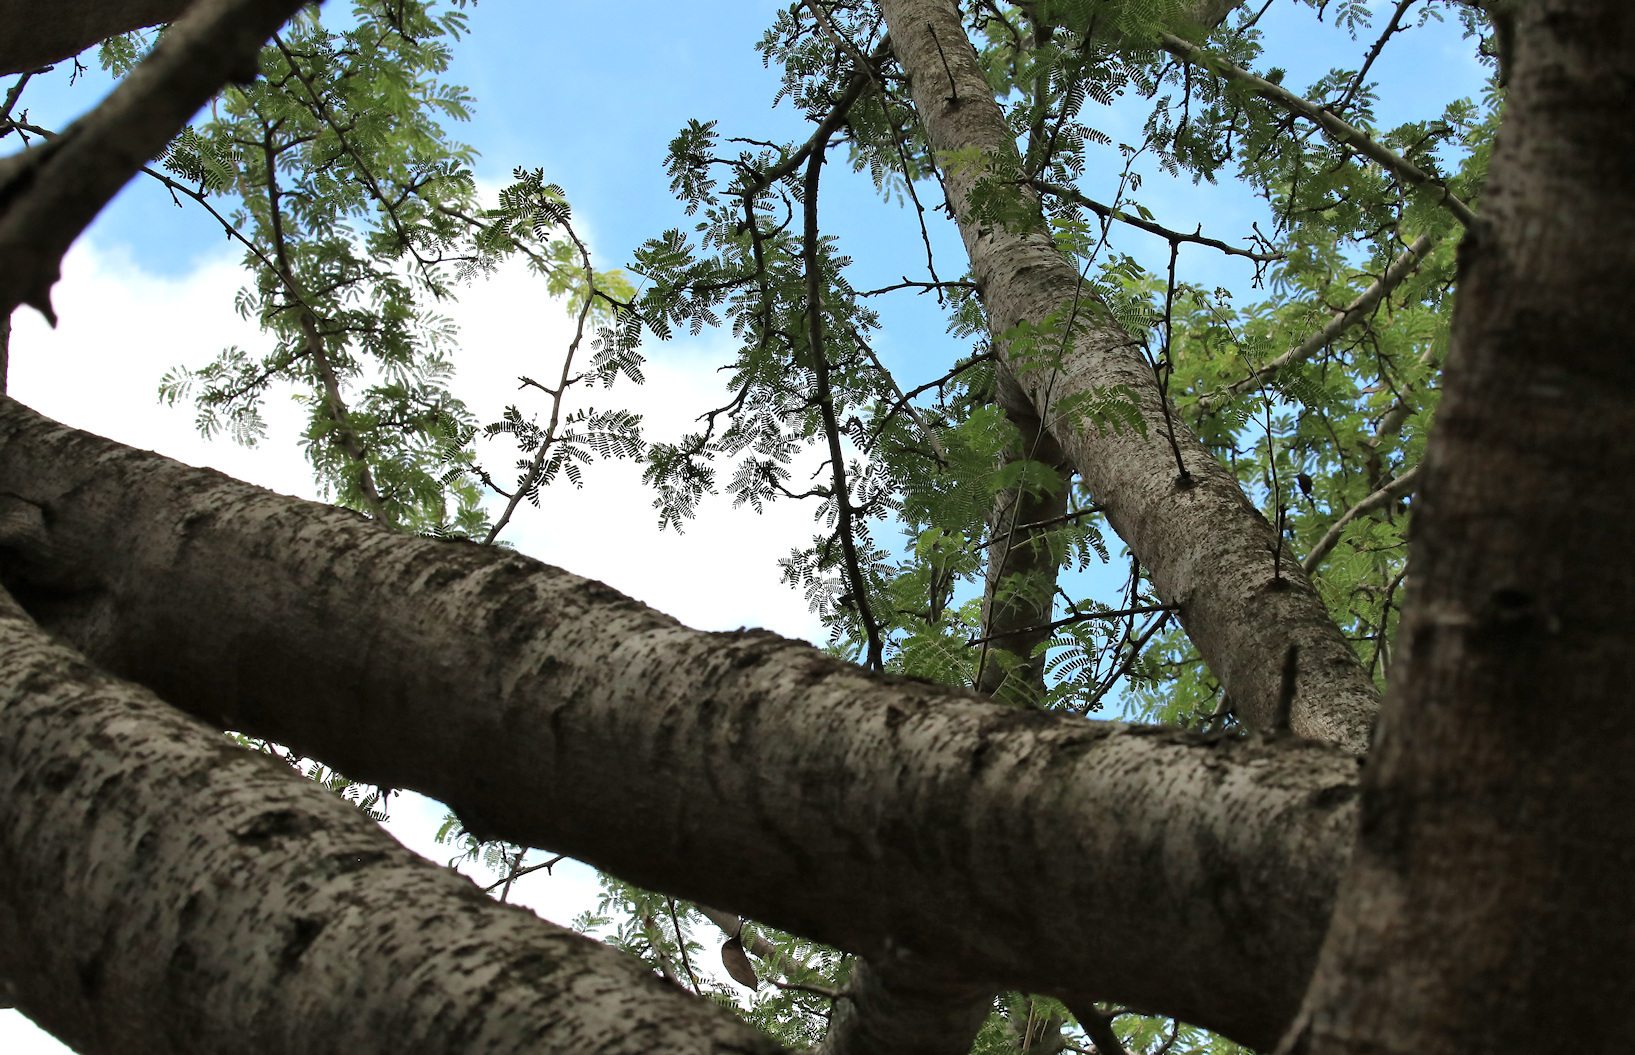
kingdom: Plantae
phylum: Tracheophyta
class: Magnoliopsida
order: Fabales
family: Fabaceae
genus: Albizia
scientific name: Albizia forbesii
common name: Broad-pod albizia
